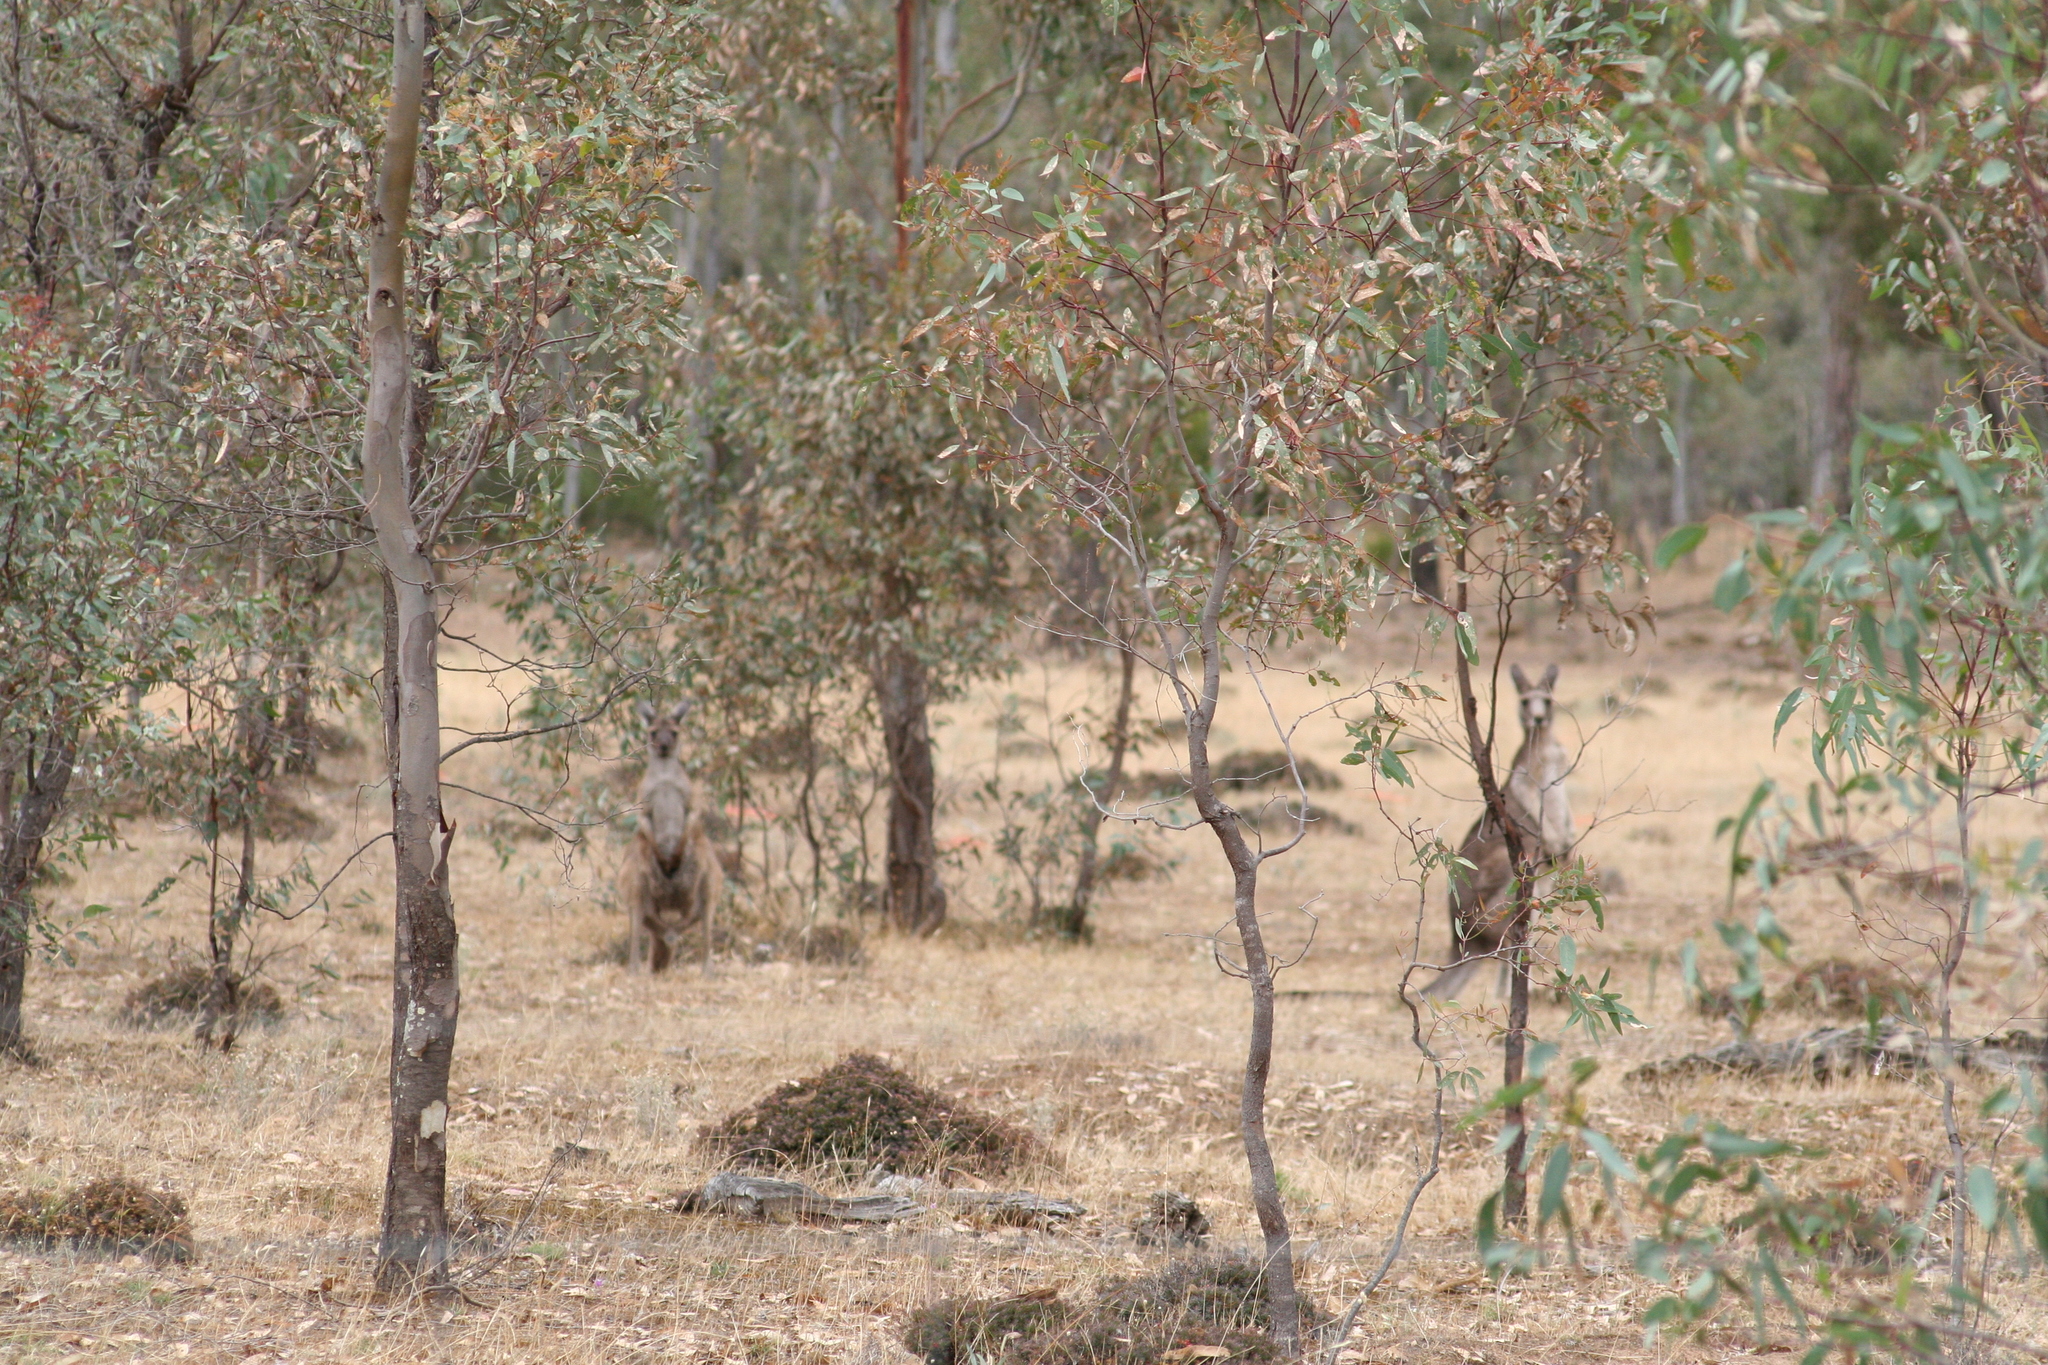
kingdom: Animalia
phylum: Chordata
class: Mammalia
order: Diprotodontia
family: Macropodidae
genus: Macropus
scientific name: Macropus giganteus
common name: Eastern grey kangaroo
